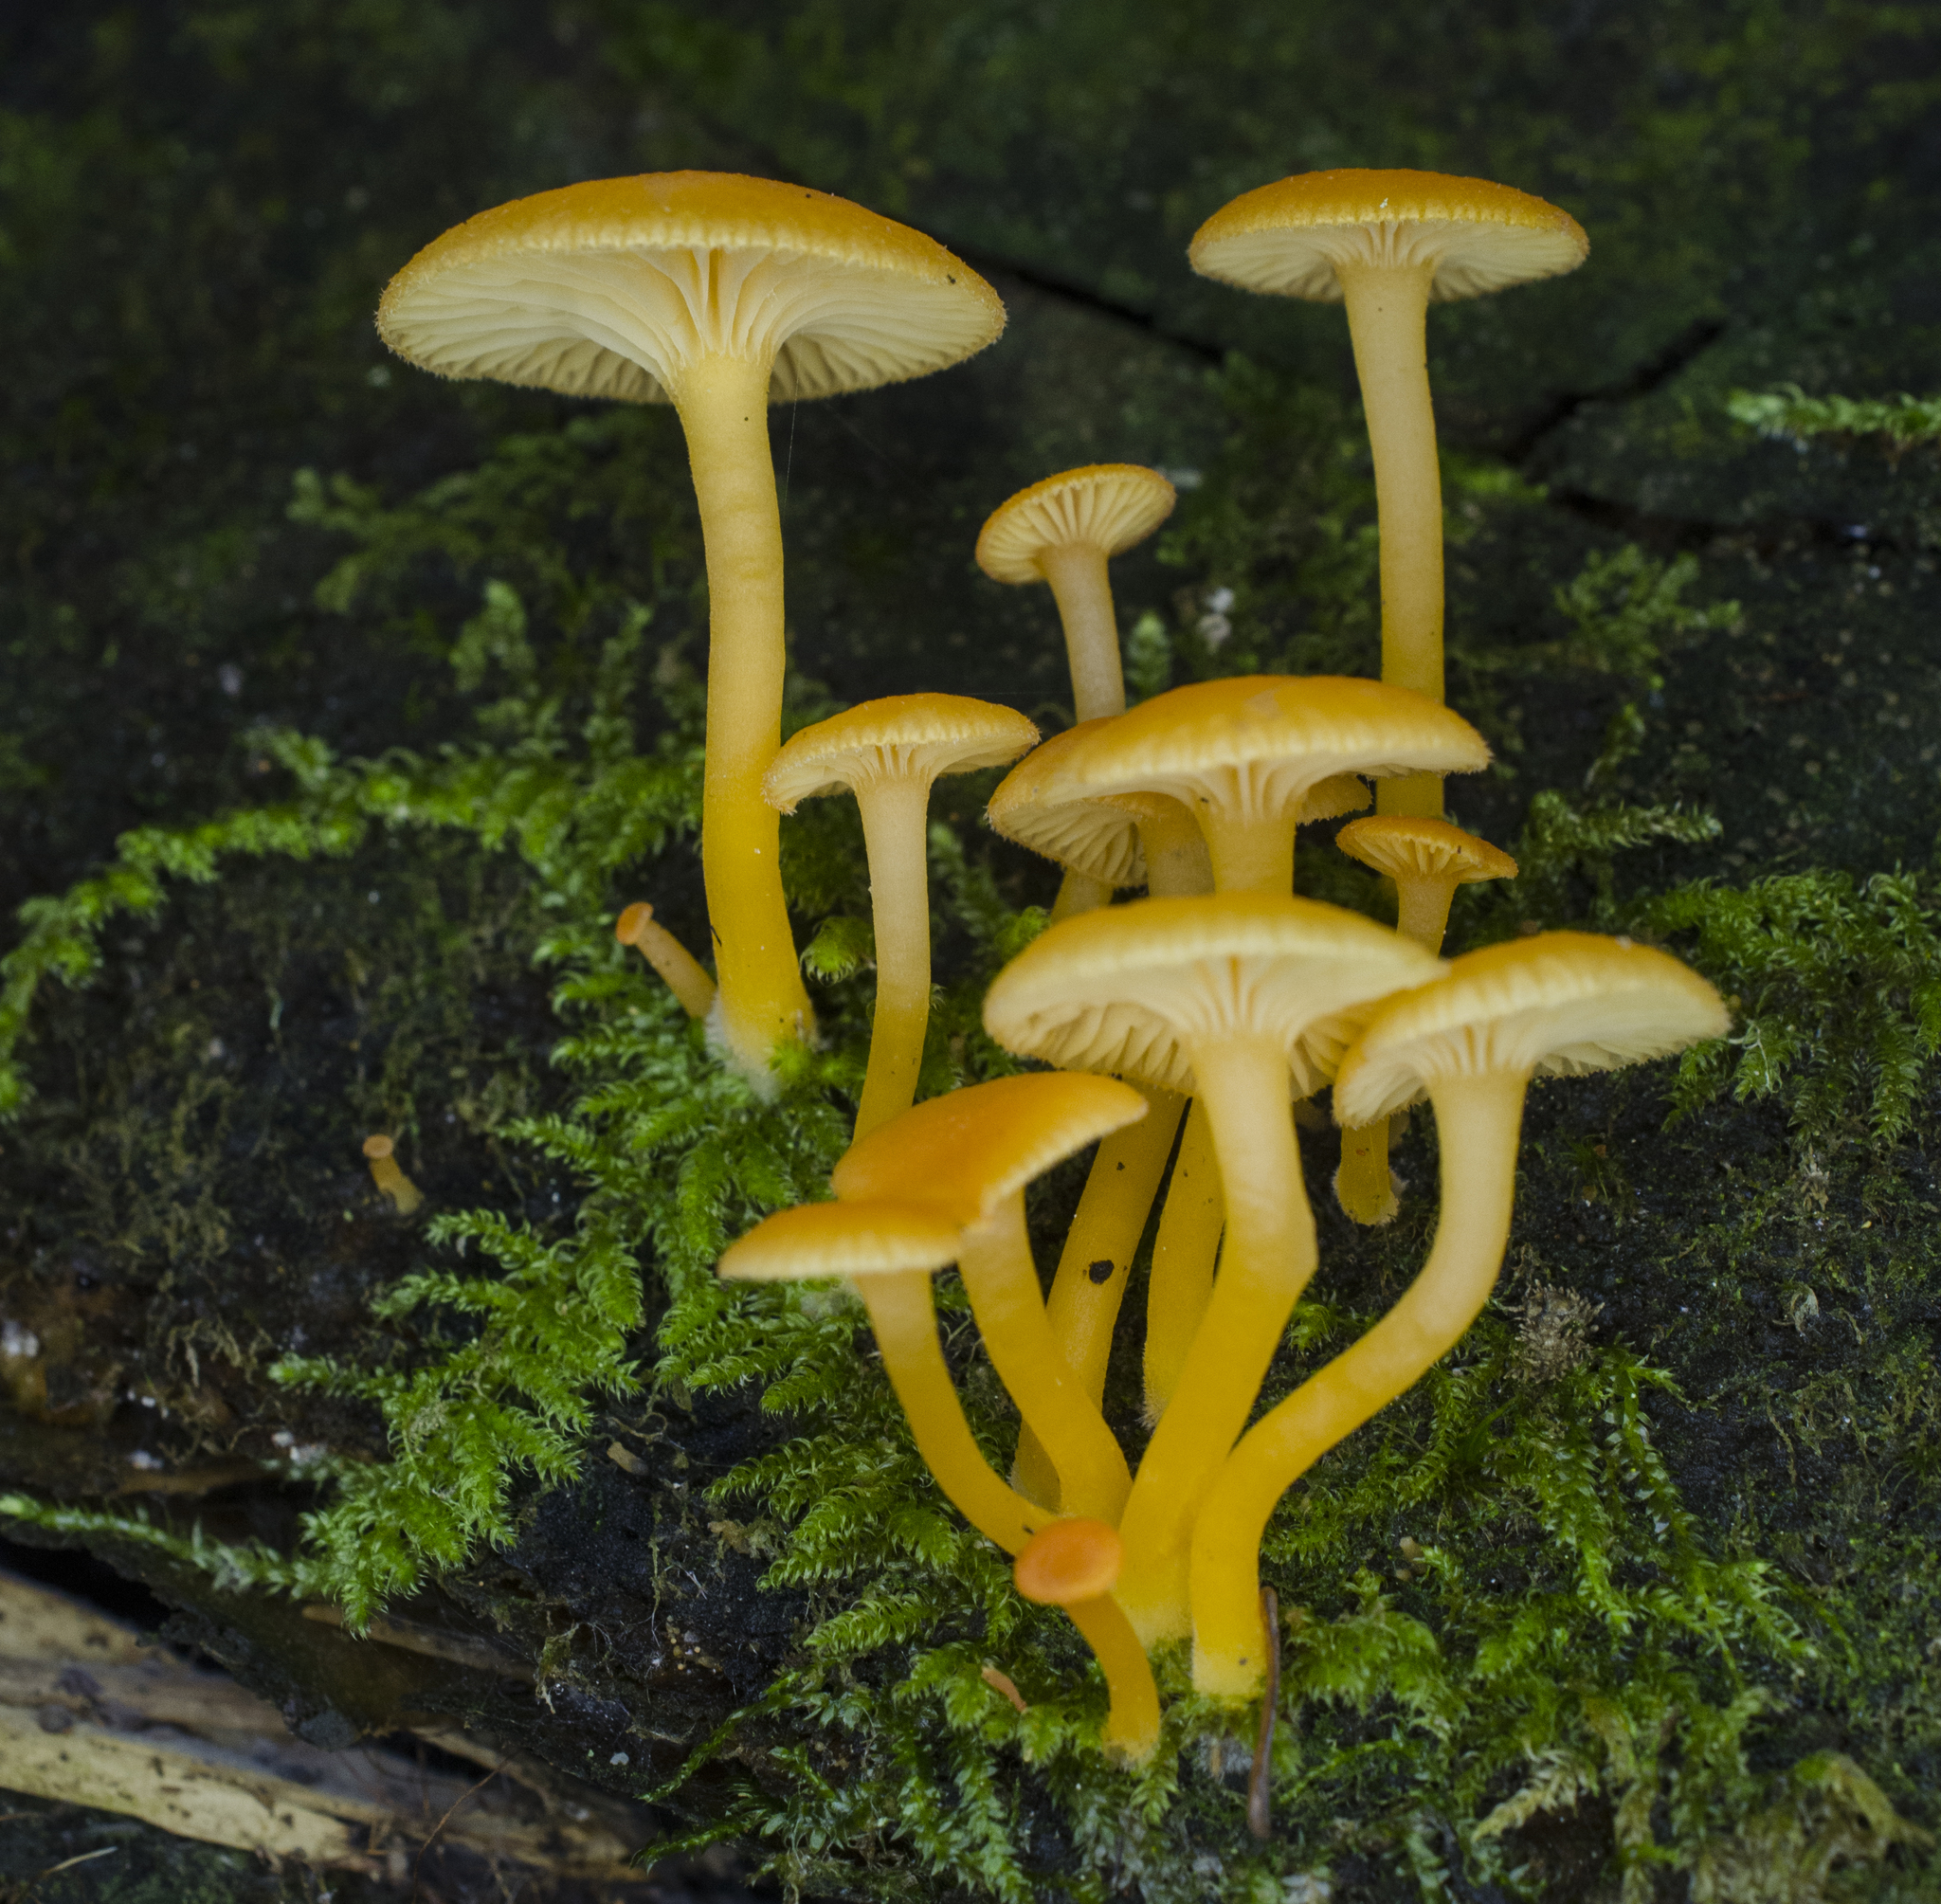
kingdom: Fungi
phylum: Basidiomycota
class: Agaricomycetes
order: Agaricales
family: Hygrophoraceae
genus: Chrysomphalina
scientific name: Chrysomphalina aurantiaca
